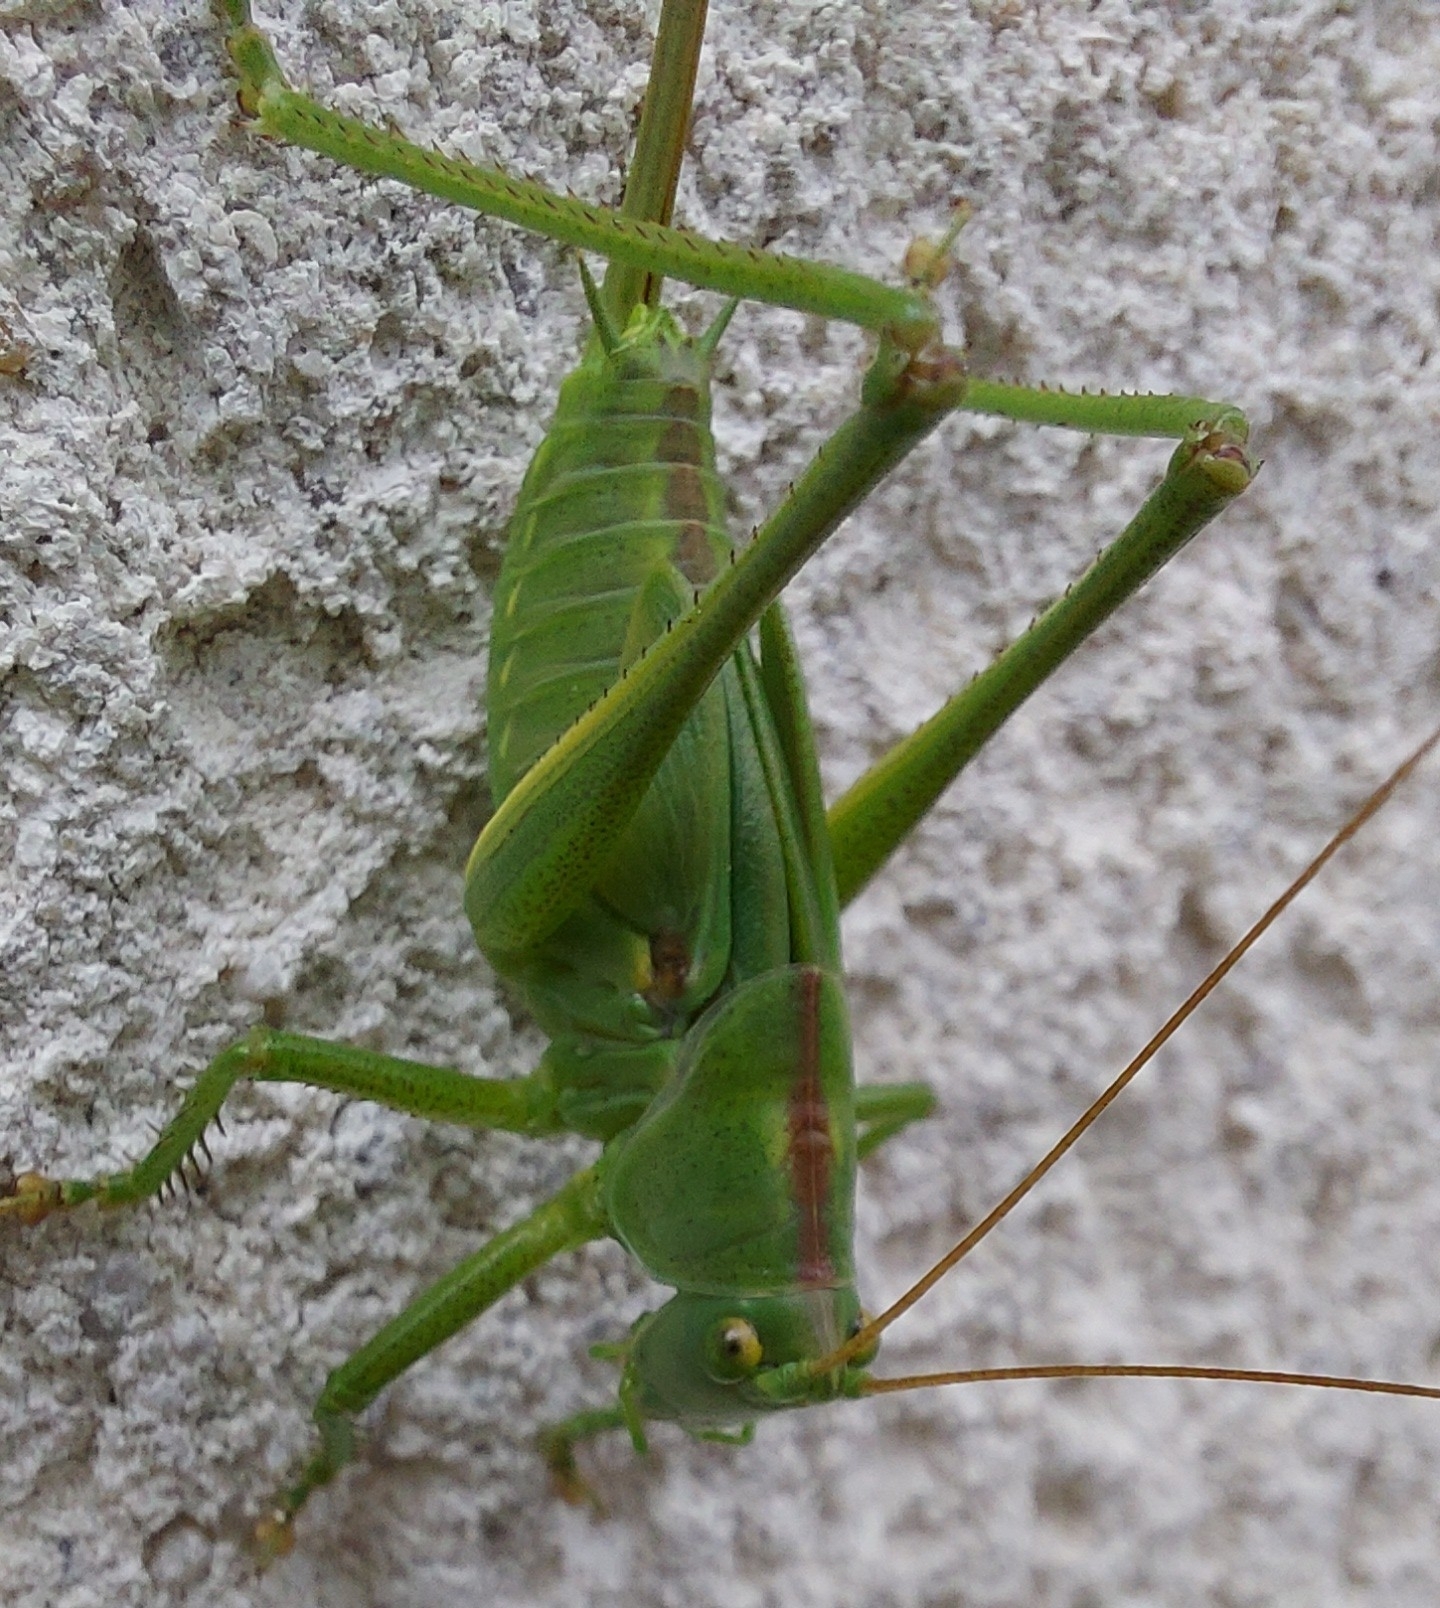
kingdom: Animalia
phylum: Arthropoda
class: Insecta
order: Orthoptera
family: Tettigoniidae
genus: Tettigonia
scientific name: Tettigonia viridissima
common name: Great green bush-cricket
